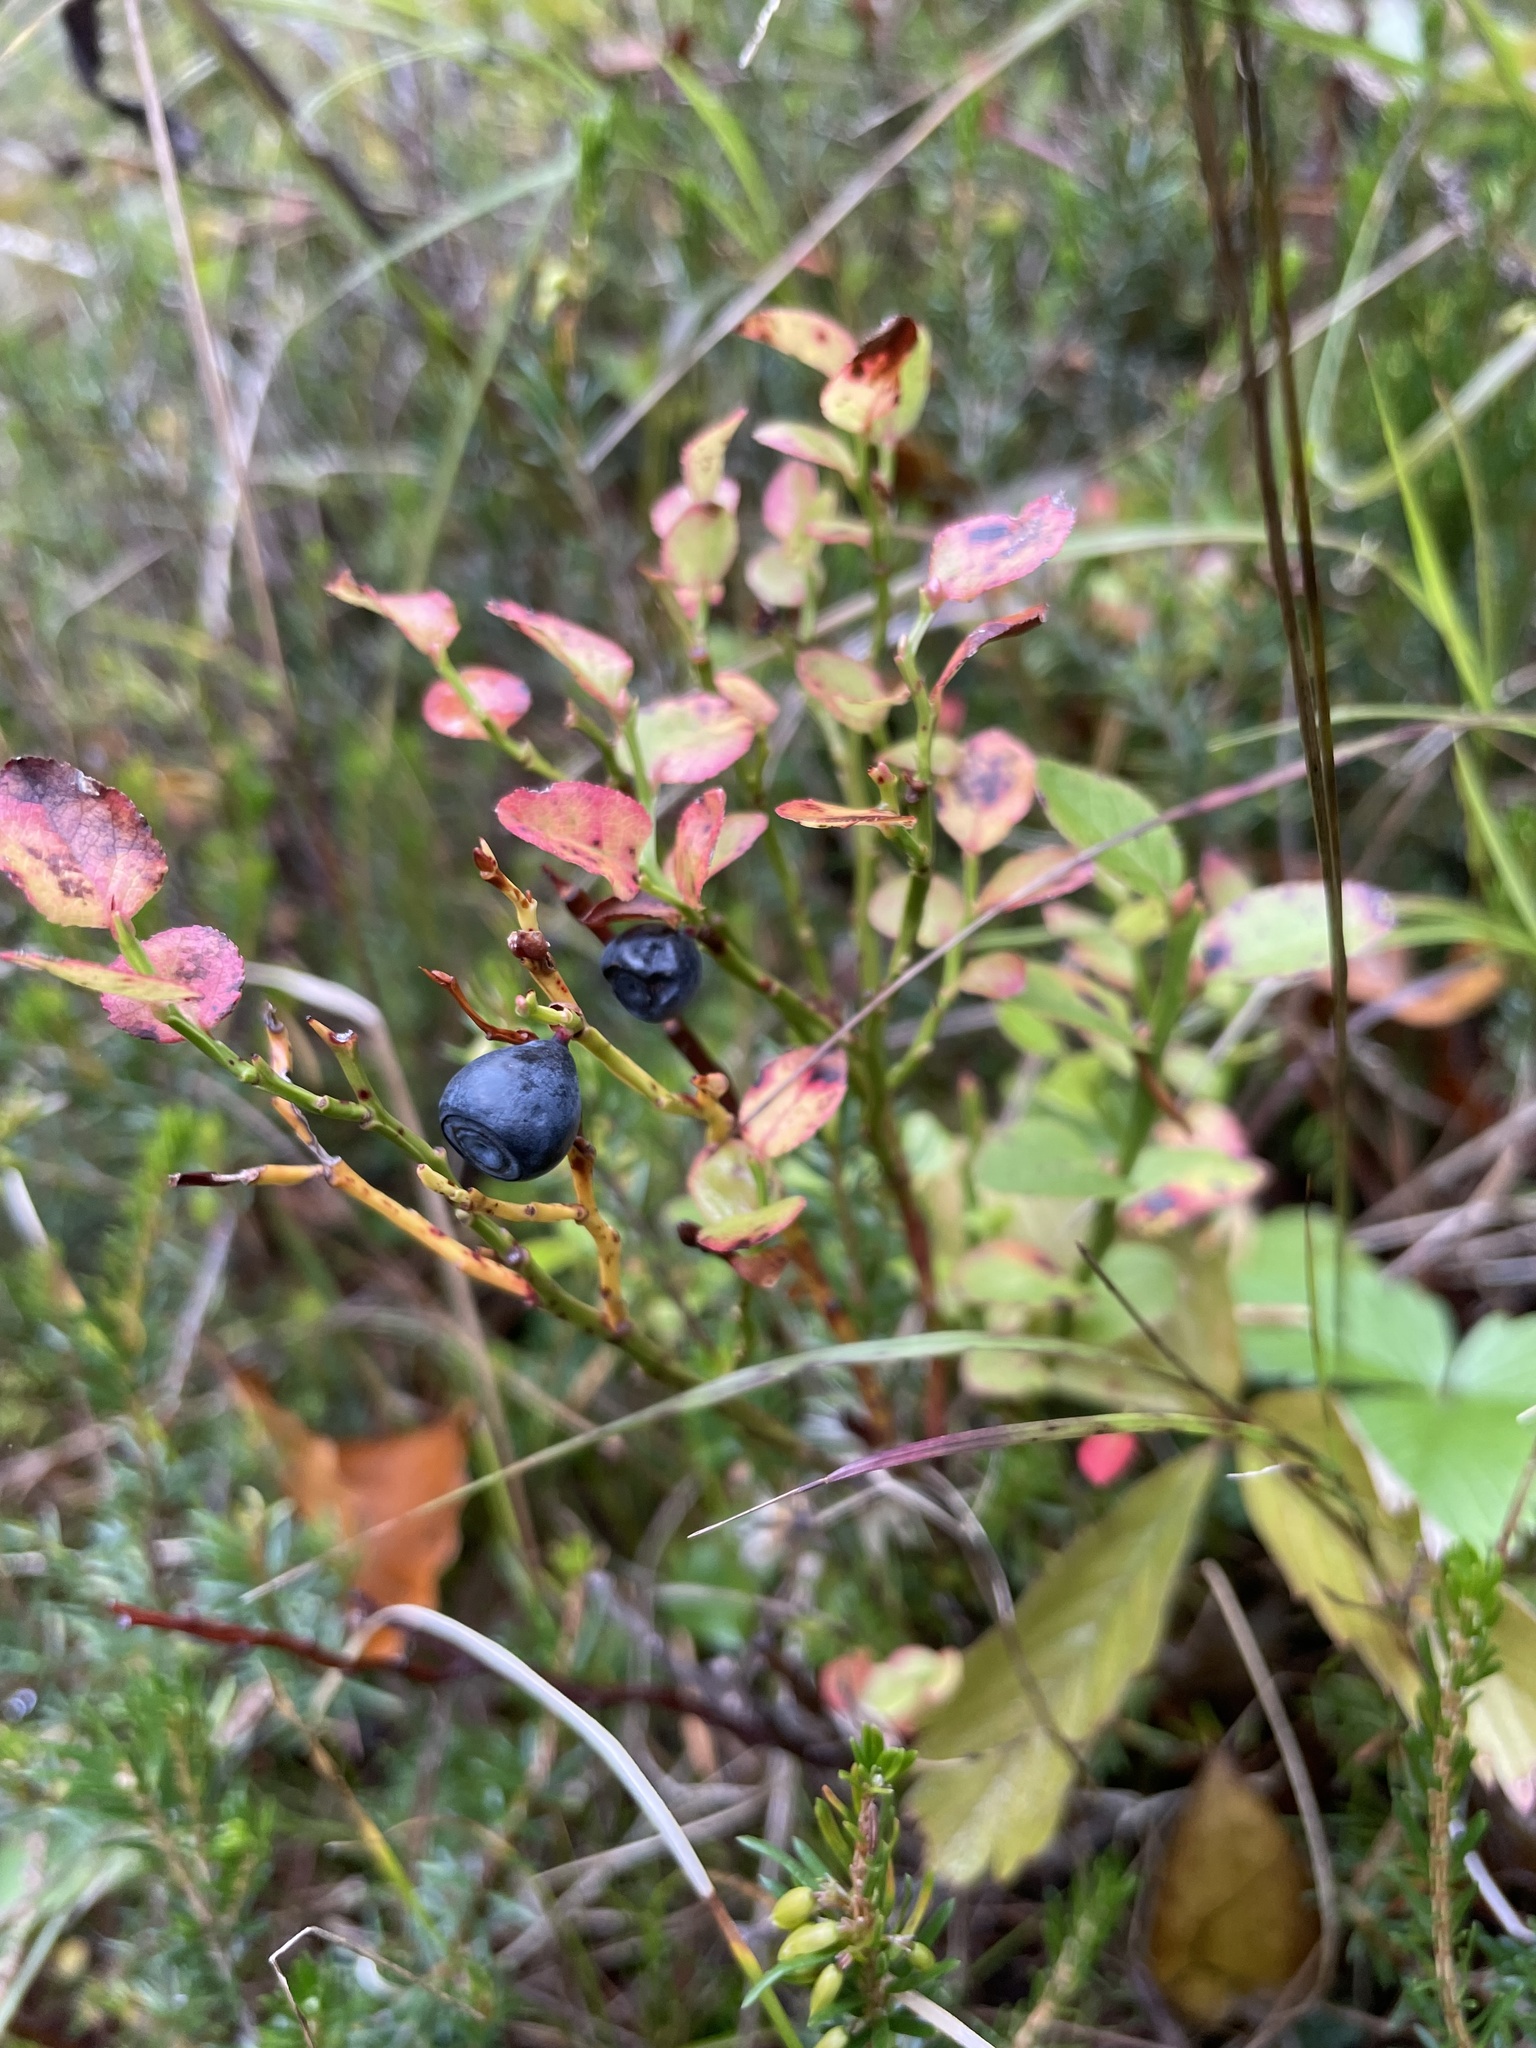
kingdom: Plantae
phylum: Tracheophyta
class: Magnoliopsida
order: Ericales
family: Ericaceae
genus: Vaccinium
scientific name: Vaccinium myrtillus
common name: Bilberry
